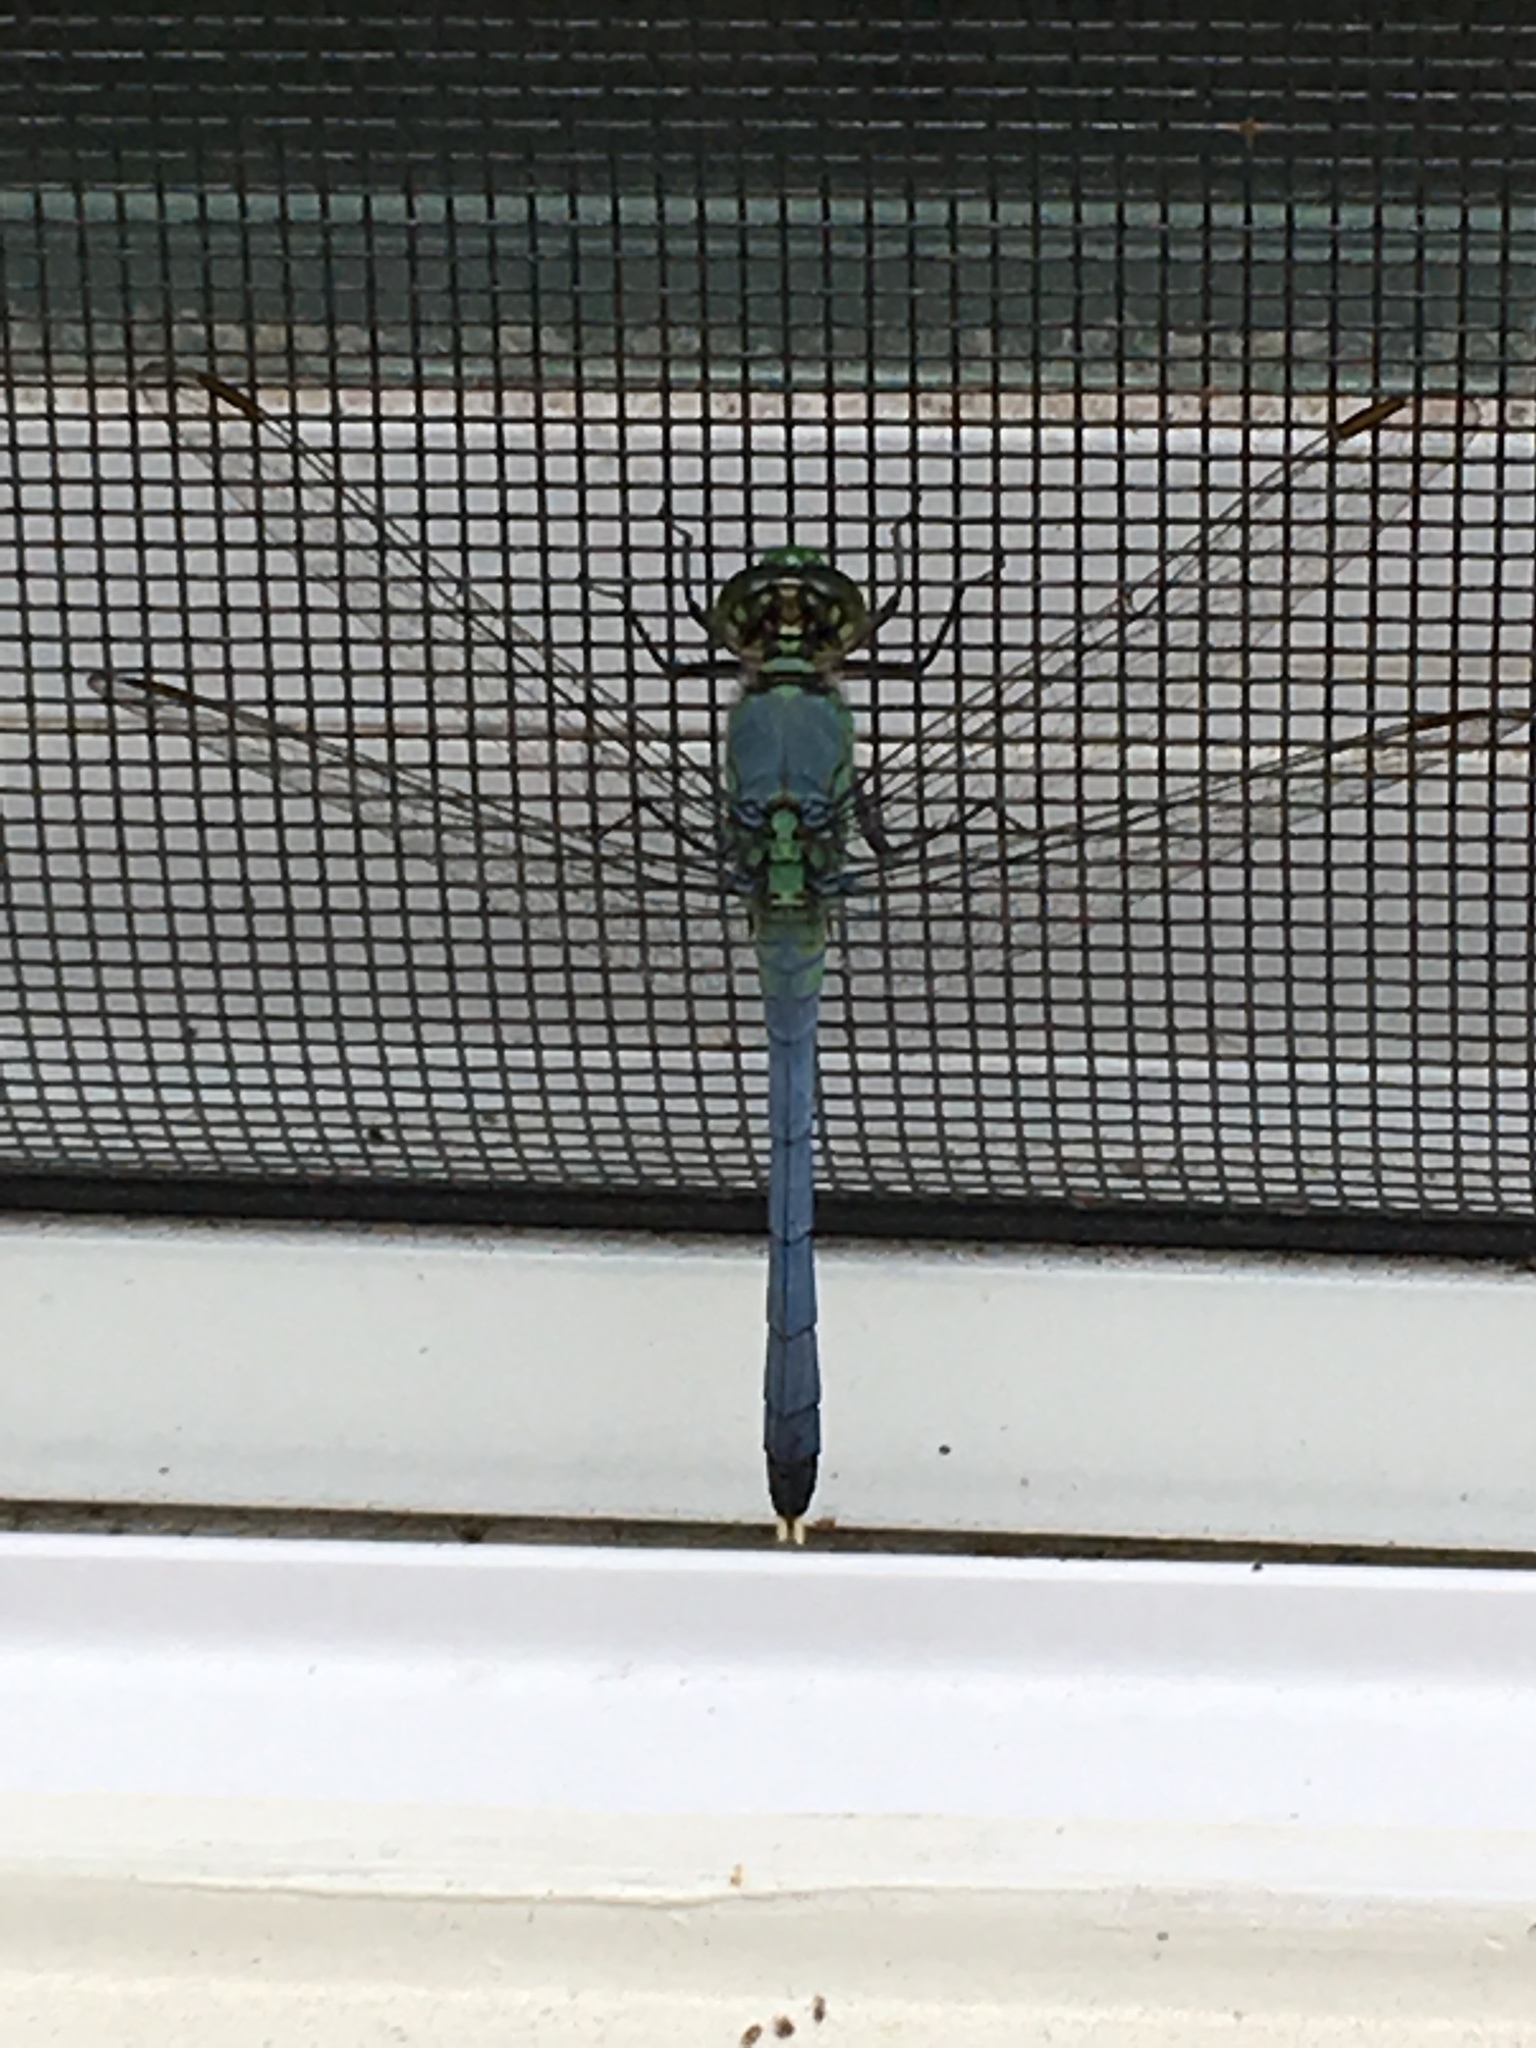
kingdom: Animalia
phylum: Arthropoda
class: Insecta
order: Odonata
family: Libellulidae
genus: Erythemis
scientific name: Erythemis simplicicollis
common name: Eastern pondhawk
